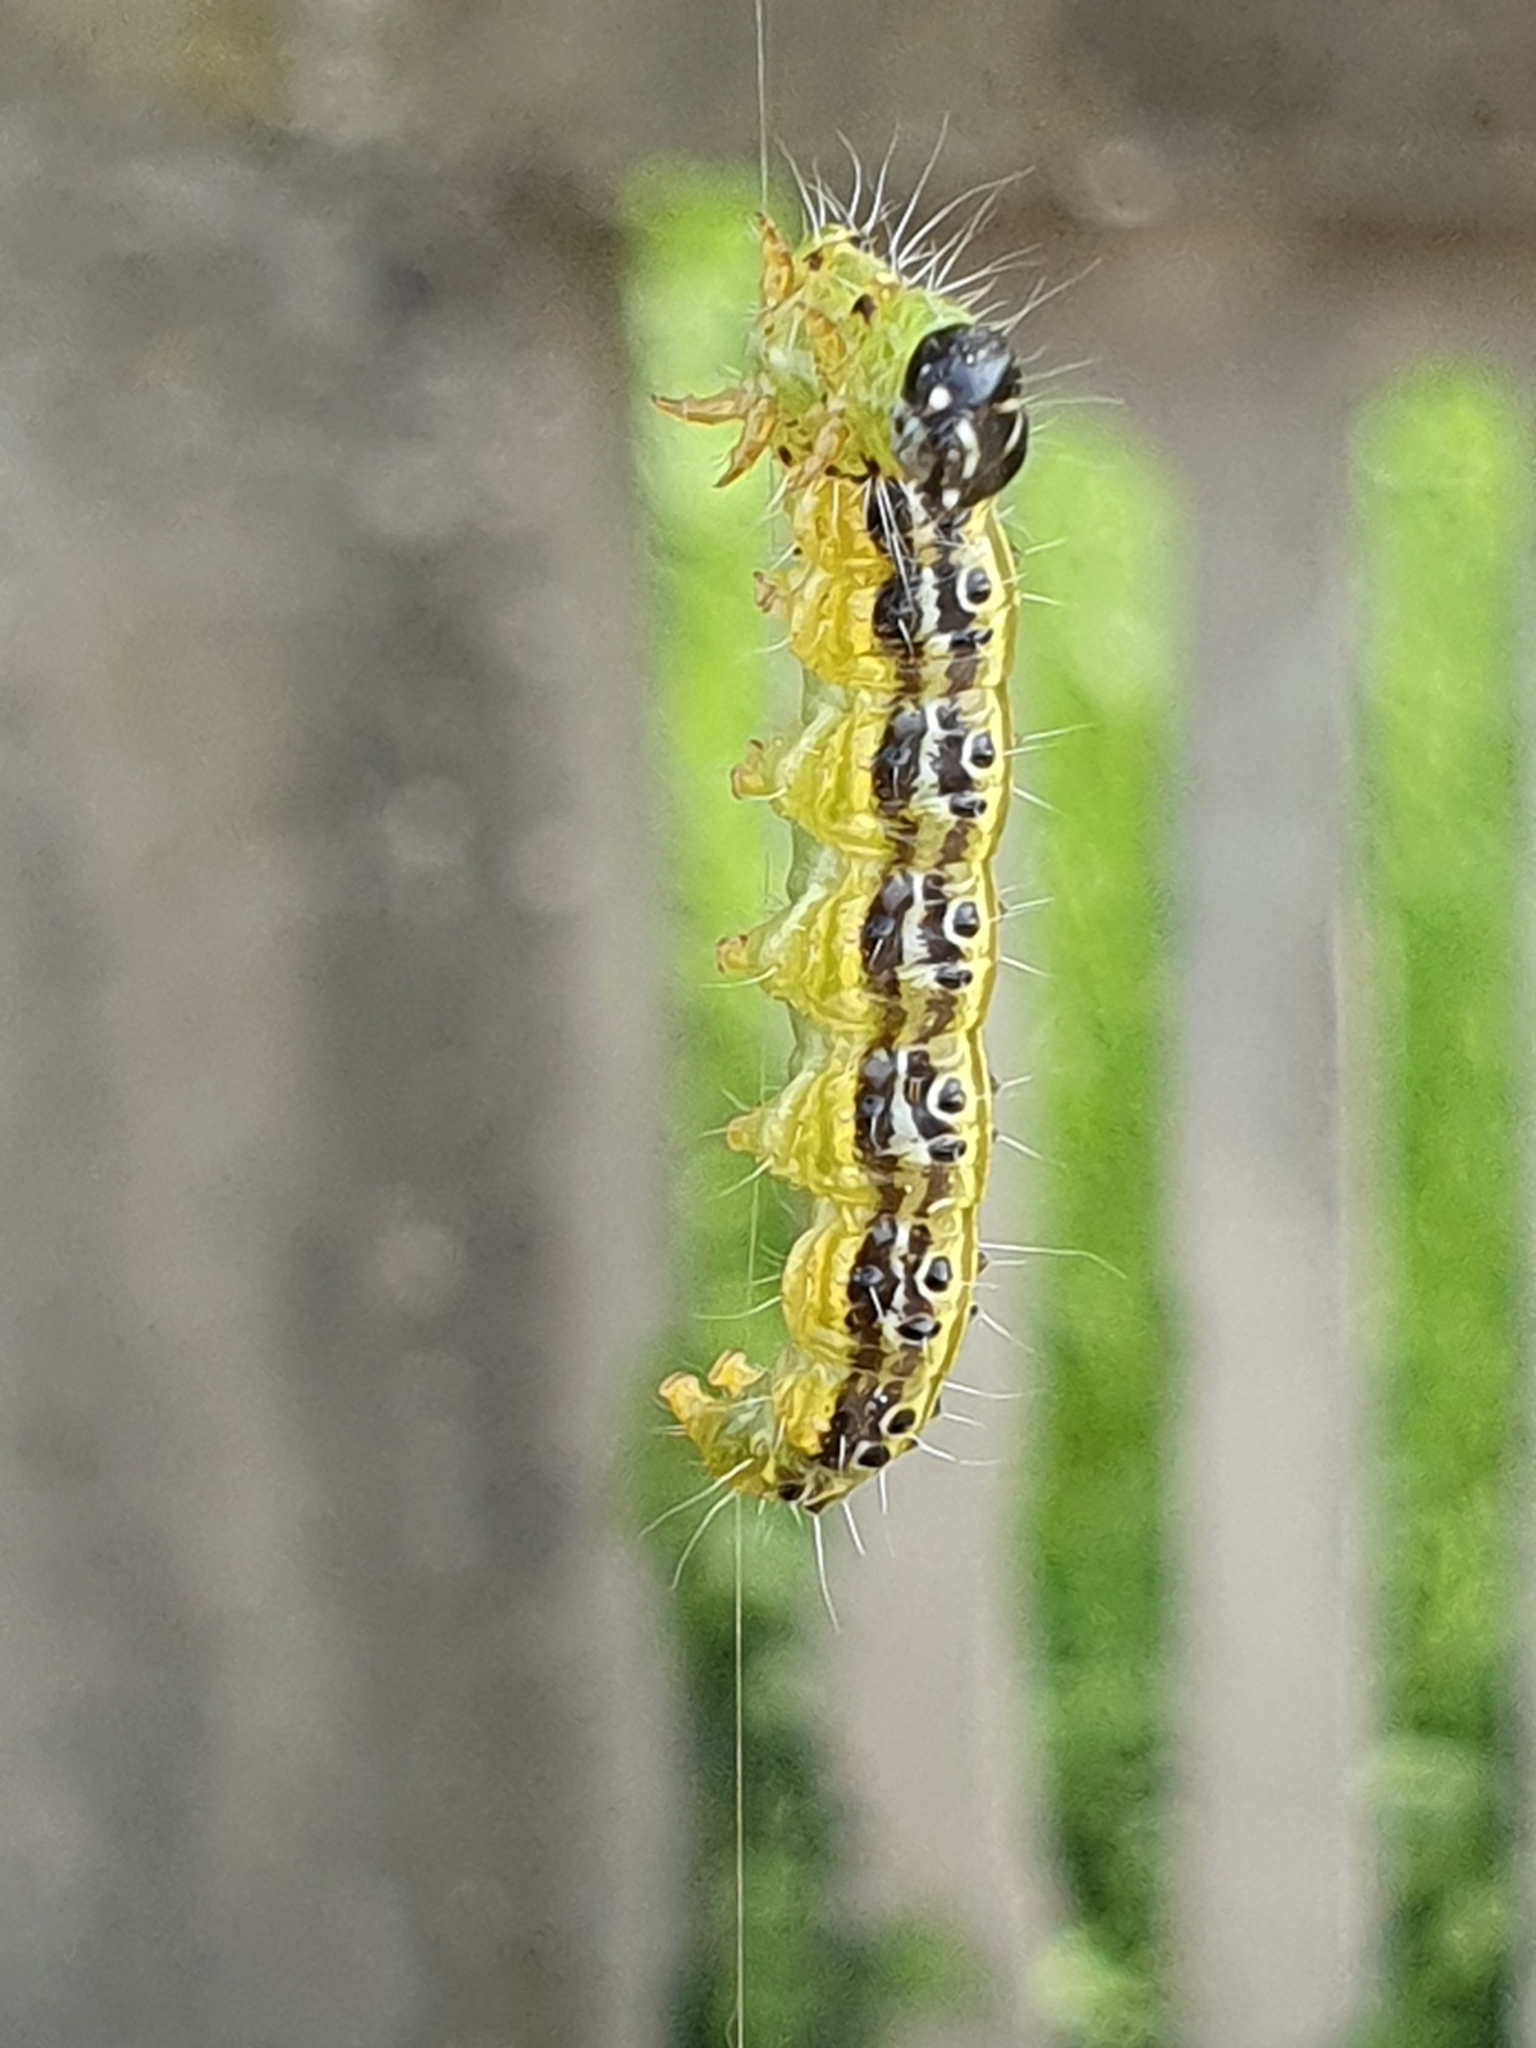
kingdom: Animalia
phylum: Arthropoda
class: Insecta
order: Lepidoptera
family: Crambidae
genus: Cydalima
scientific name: Cydalima perspectalis
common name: Box tree moth
